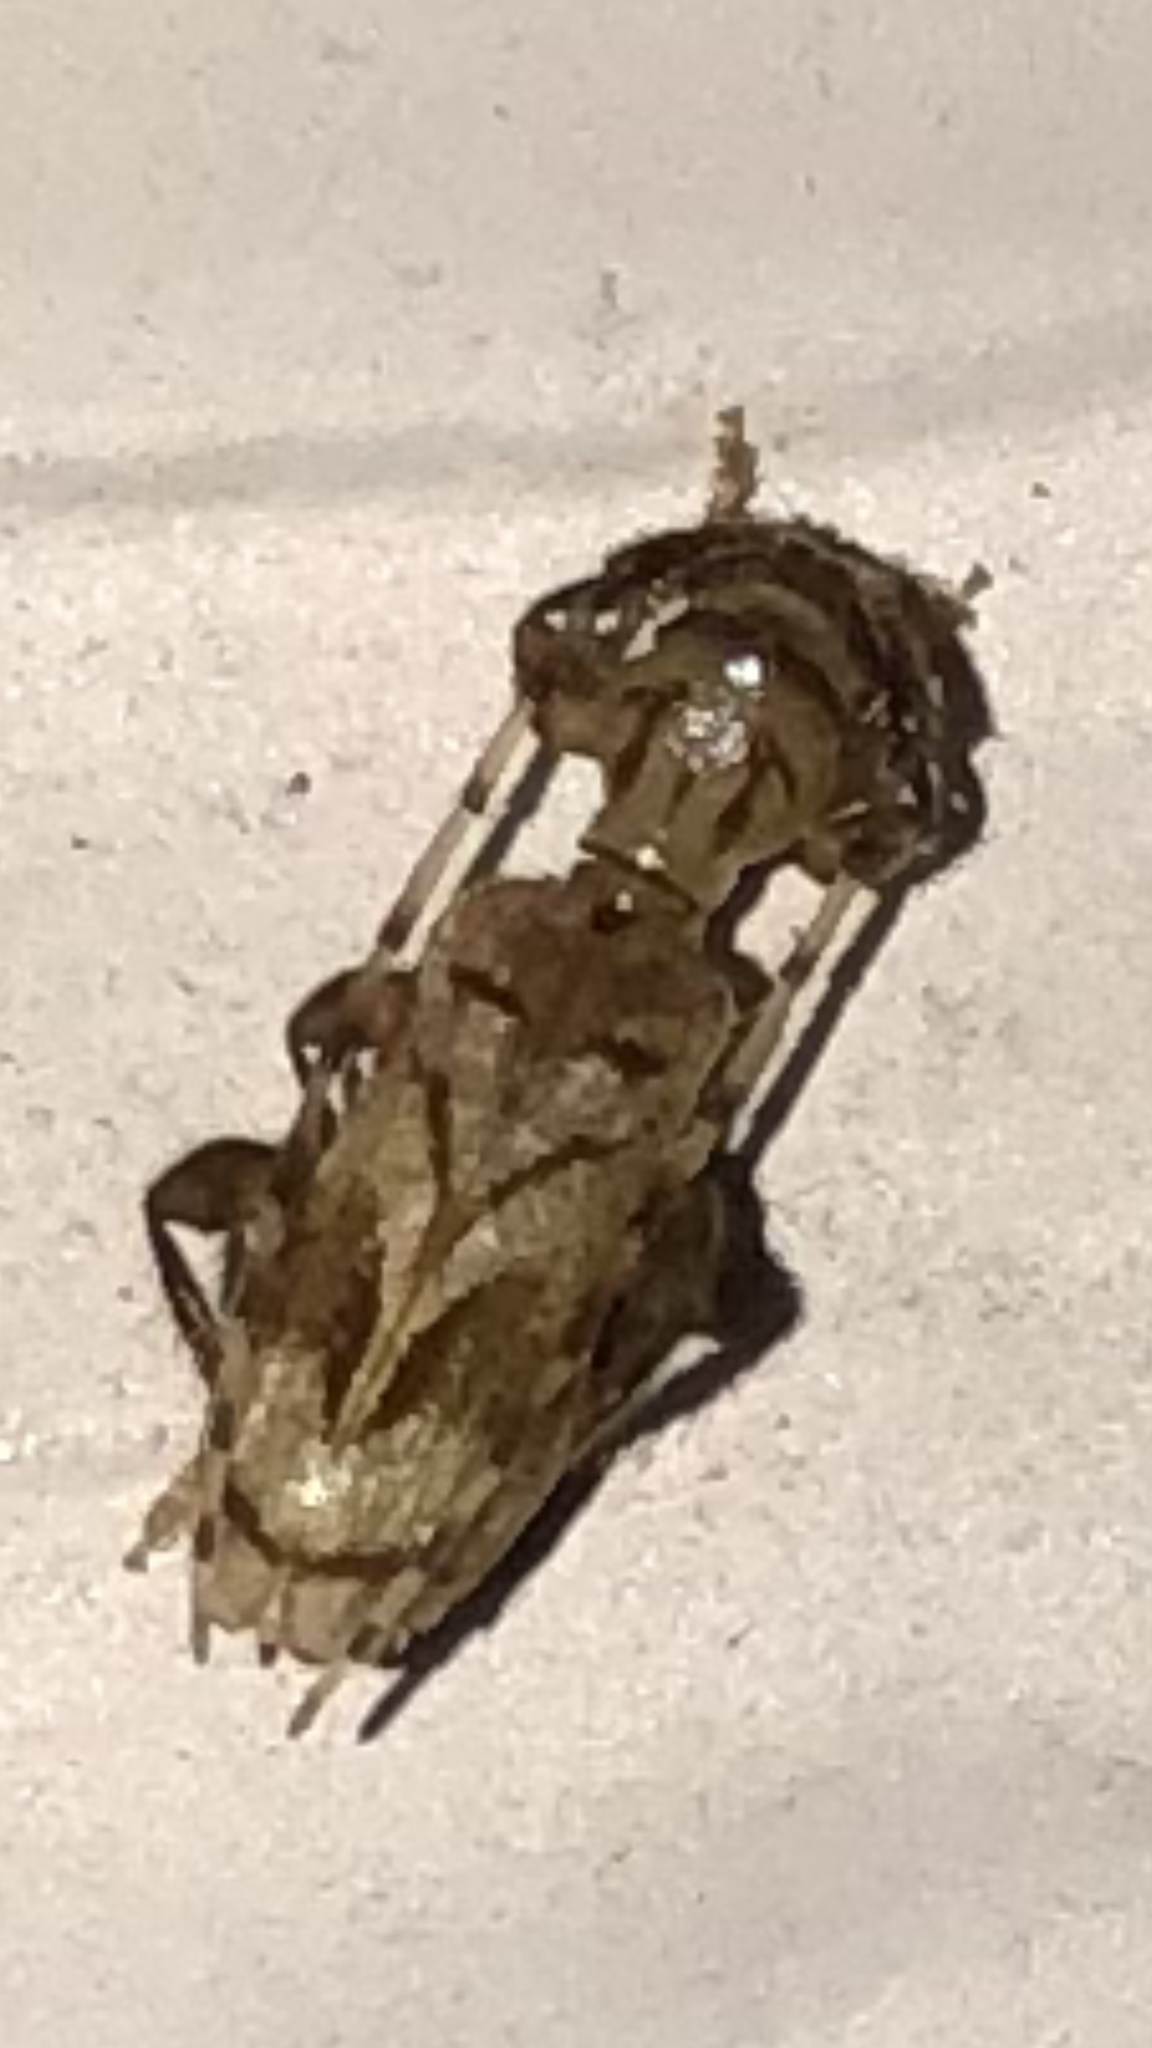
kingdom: Animalia
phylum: Arthropoda
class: Insecta
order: Coleoptera
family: Cerambycidae
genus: Obrium
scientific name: Obrium maculatum
